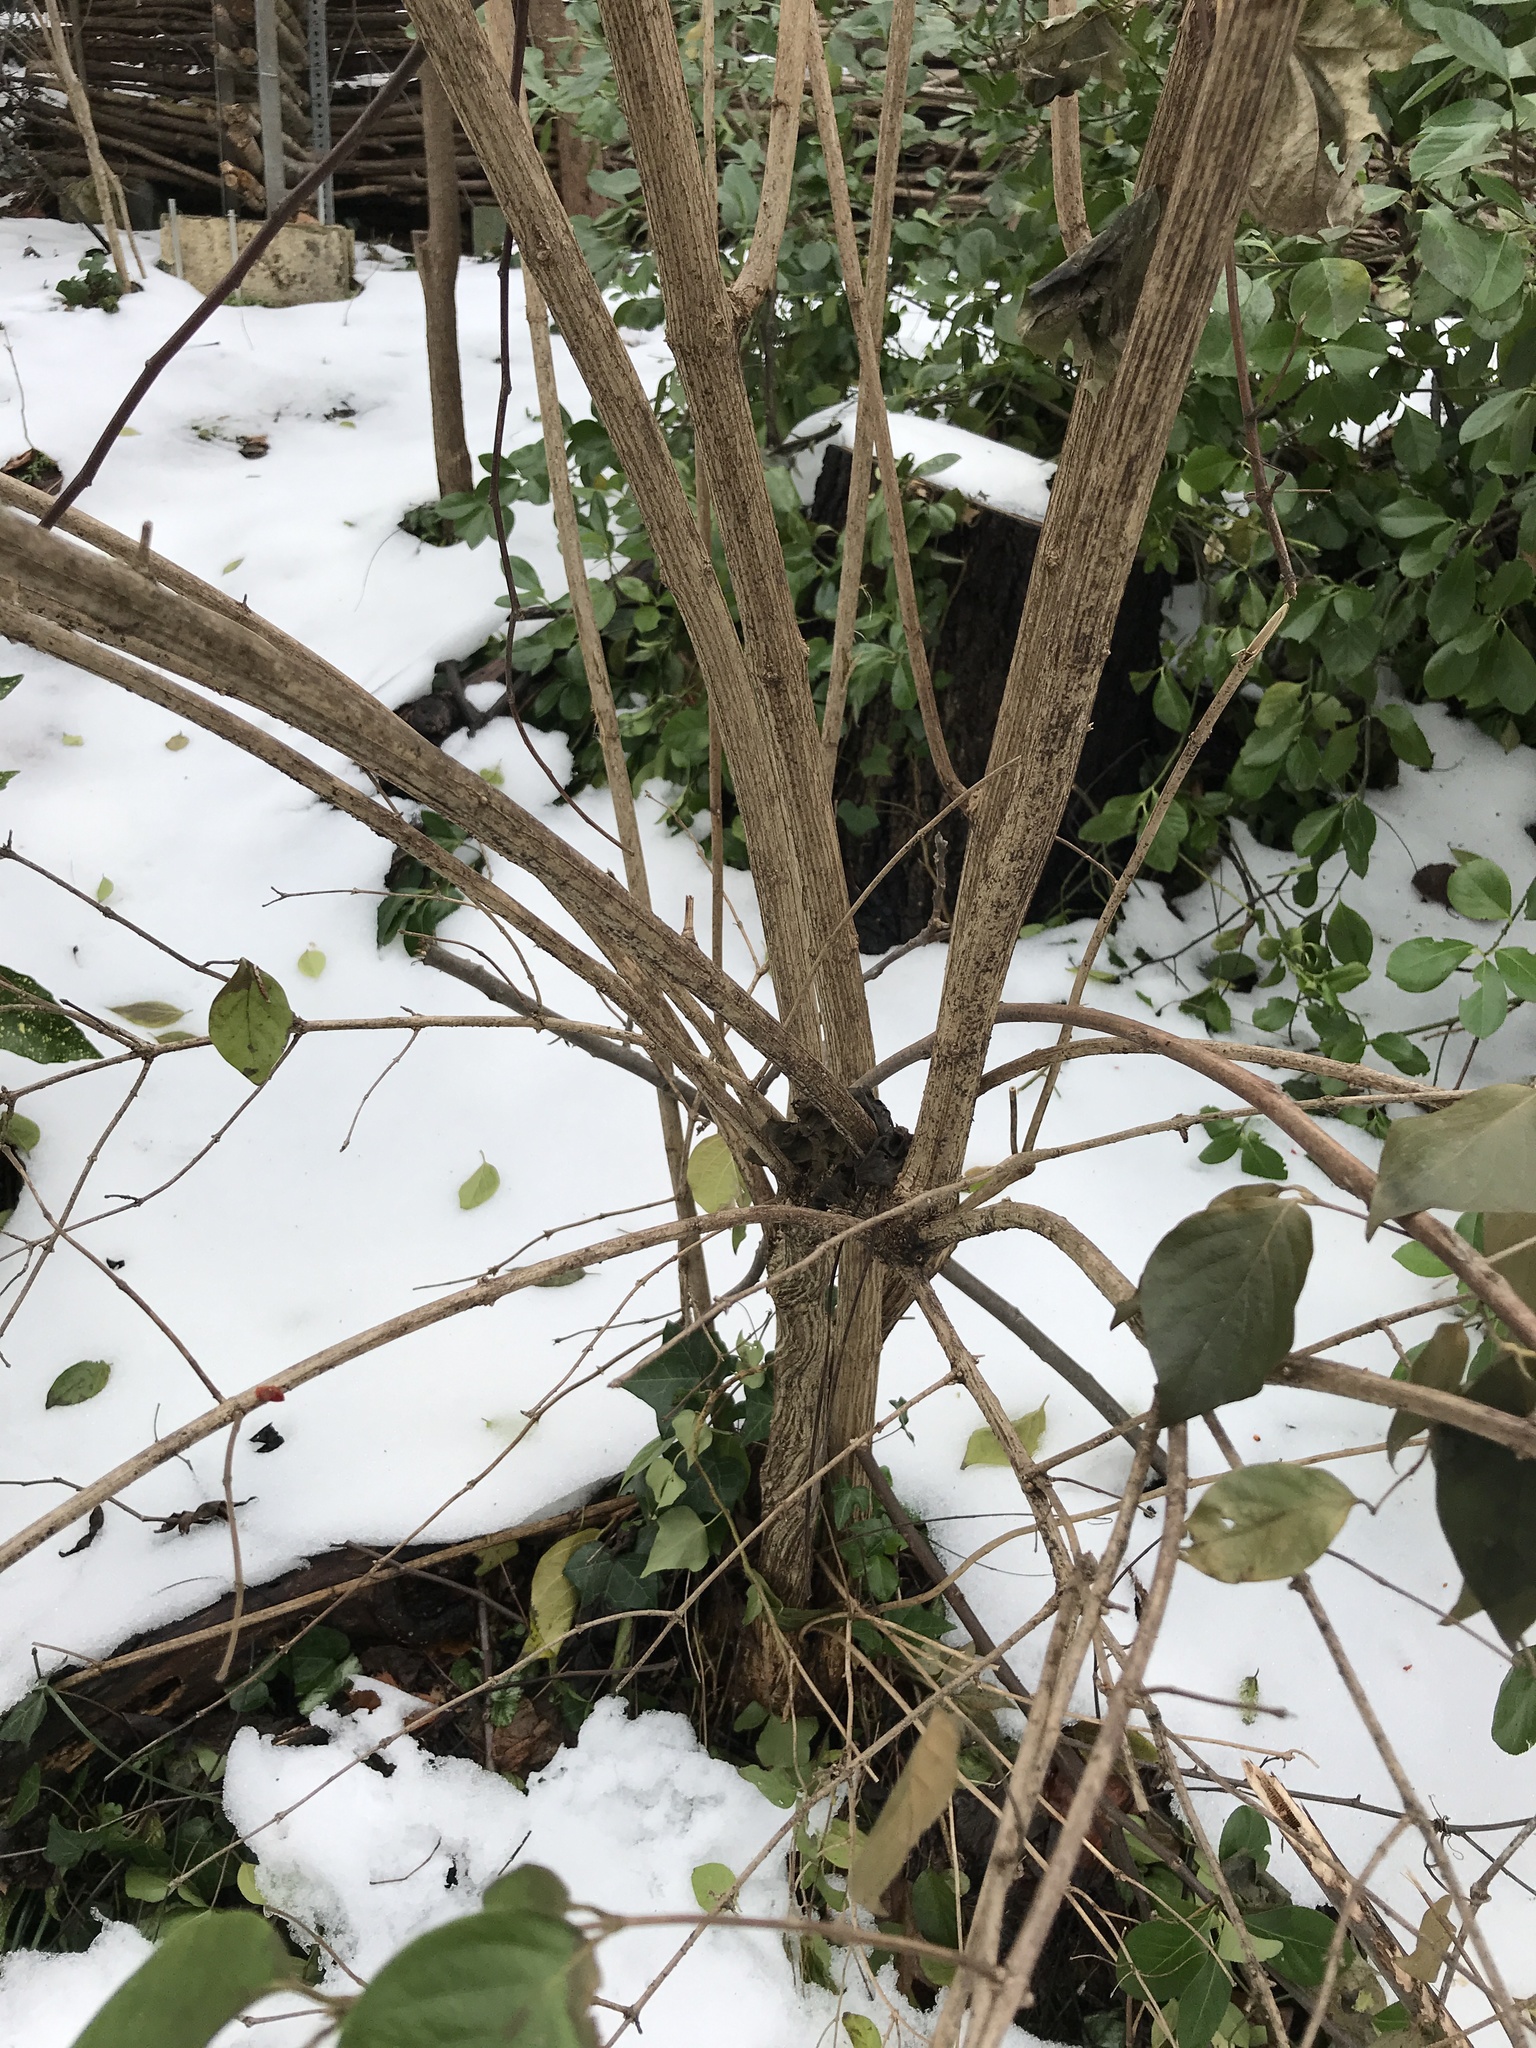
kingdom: Plantae
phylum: Tracheophyta
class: Magnoliopsida
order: Dipsacales
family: Caprifoliaceae
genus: Lonicera
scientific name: Lonicera maackii
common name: Amur honeysuckle
